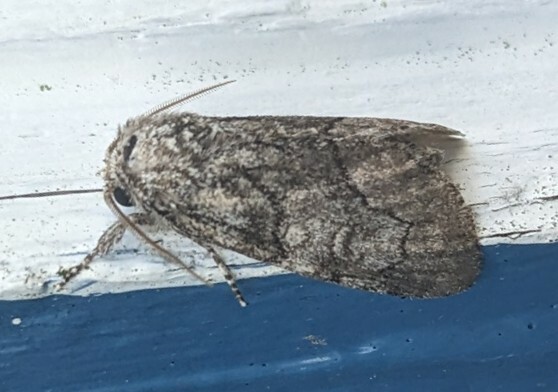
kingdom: Animalia
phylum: Arthropoda
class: Insecta
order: Lepidoptera
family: Noctuidae
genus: Raphia
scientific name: Raphia frater
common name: Brother
